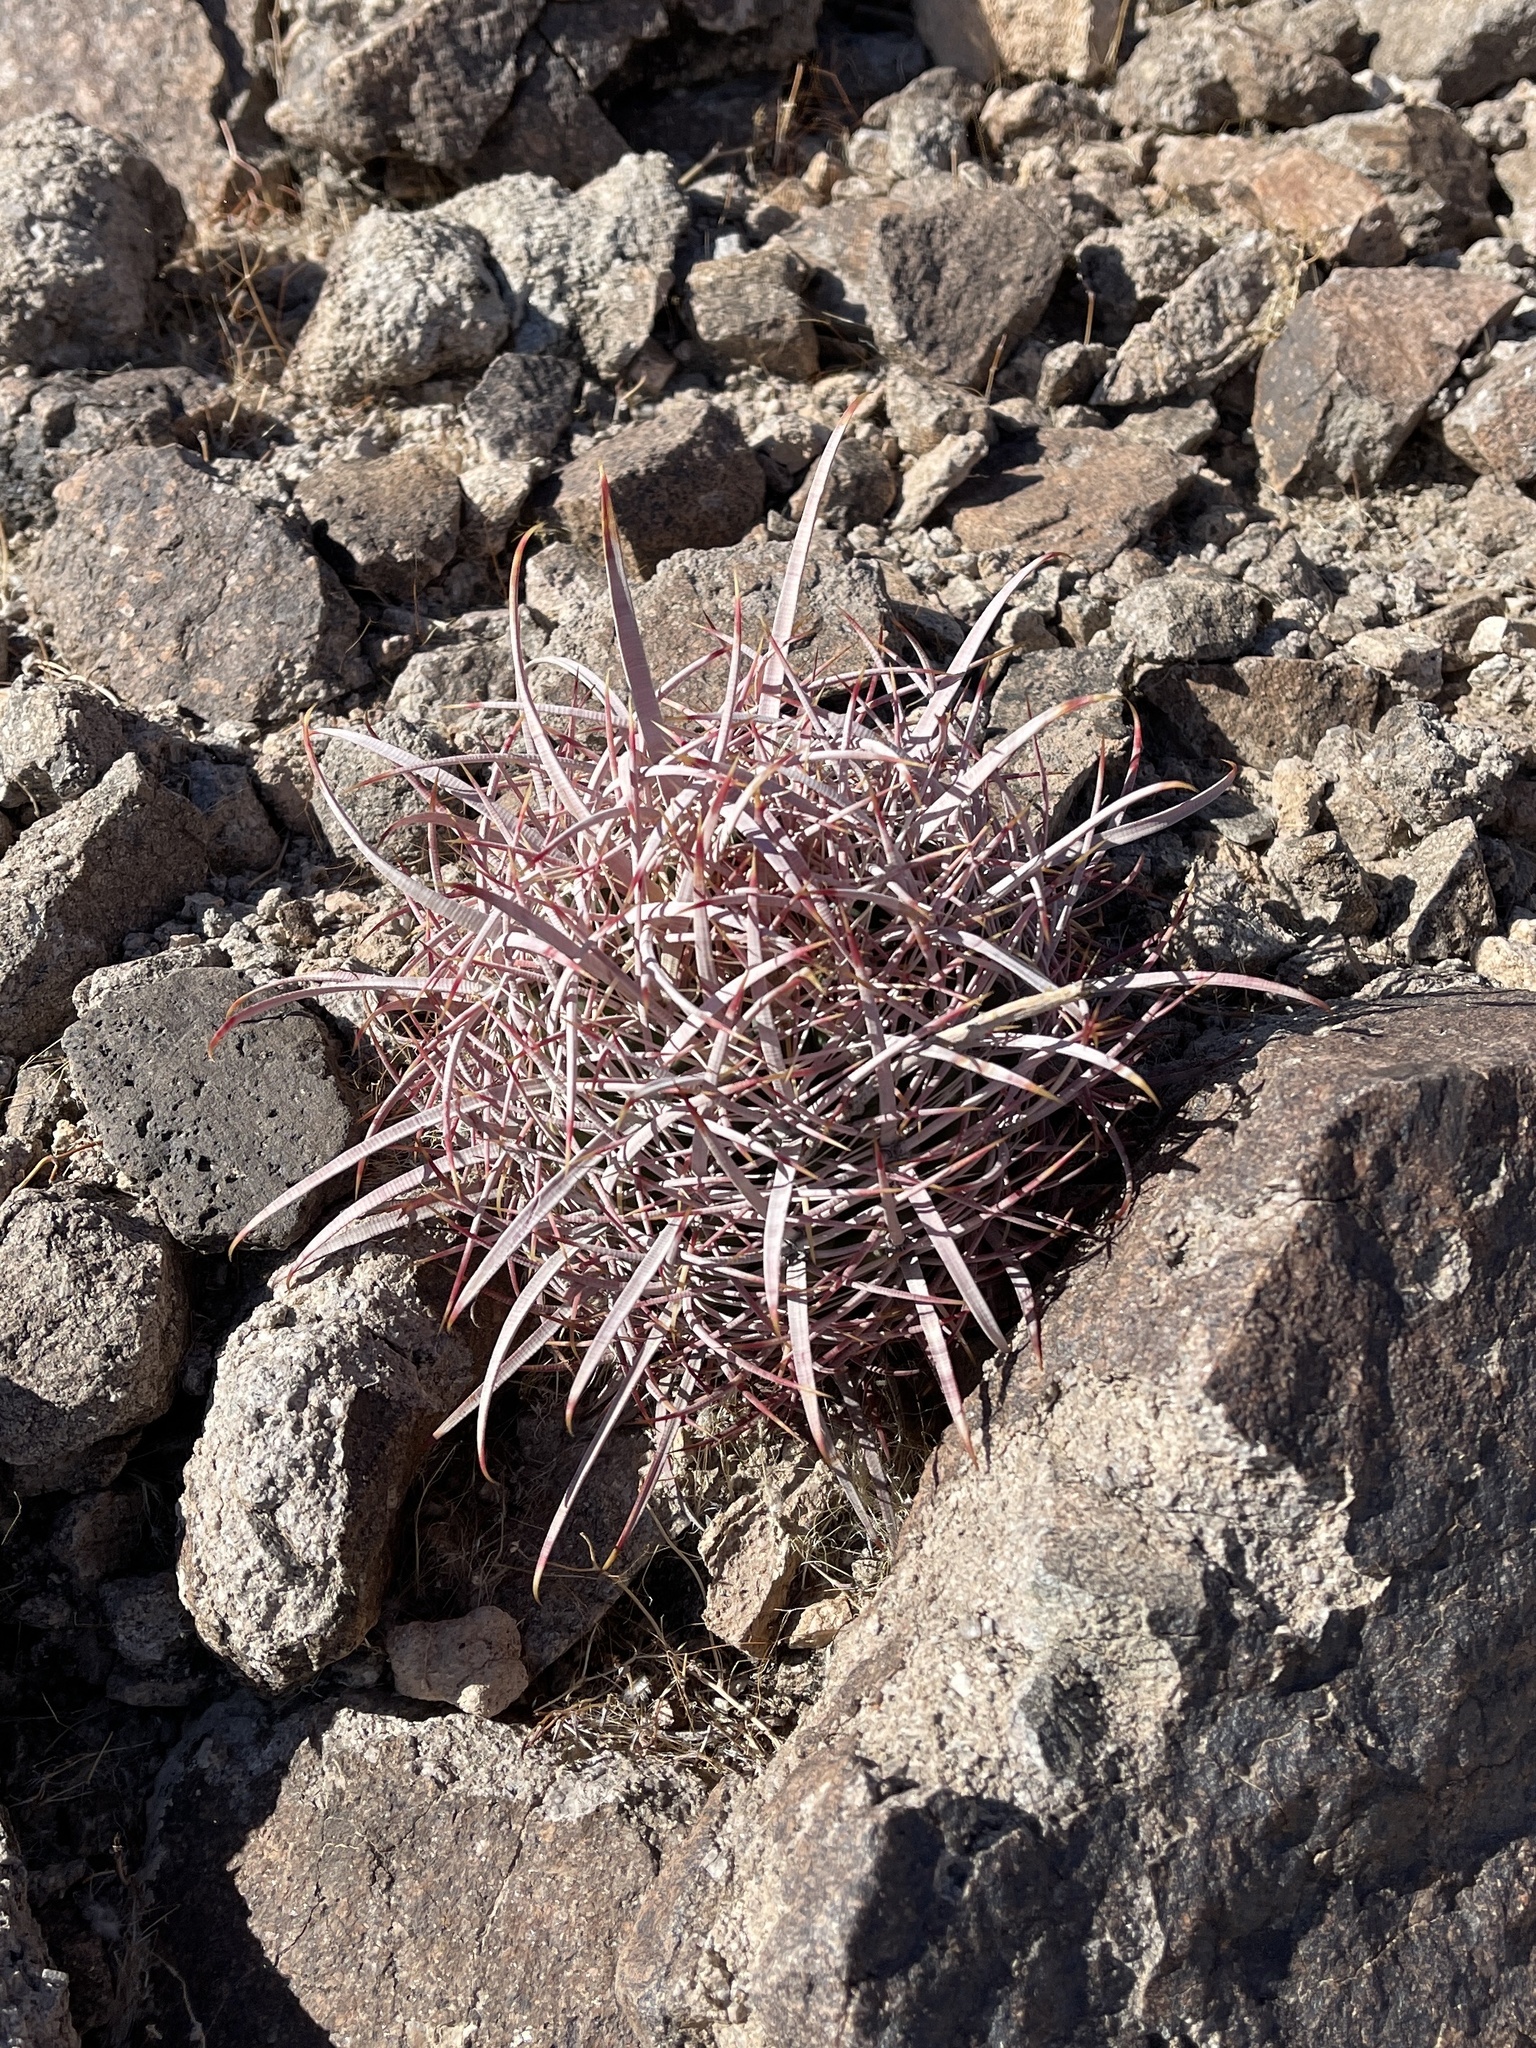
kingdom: Plantae
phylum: Tracheophyta
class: Magnoliopsida
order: Caryophyllales
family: Cactaceae
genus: Echinocactus
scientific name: Echinocactus polycephalus
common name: Cottontop cactus
